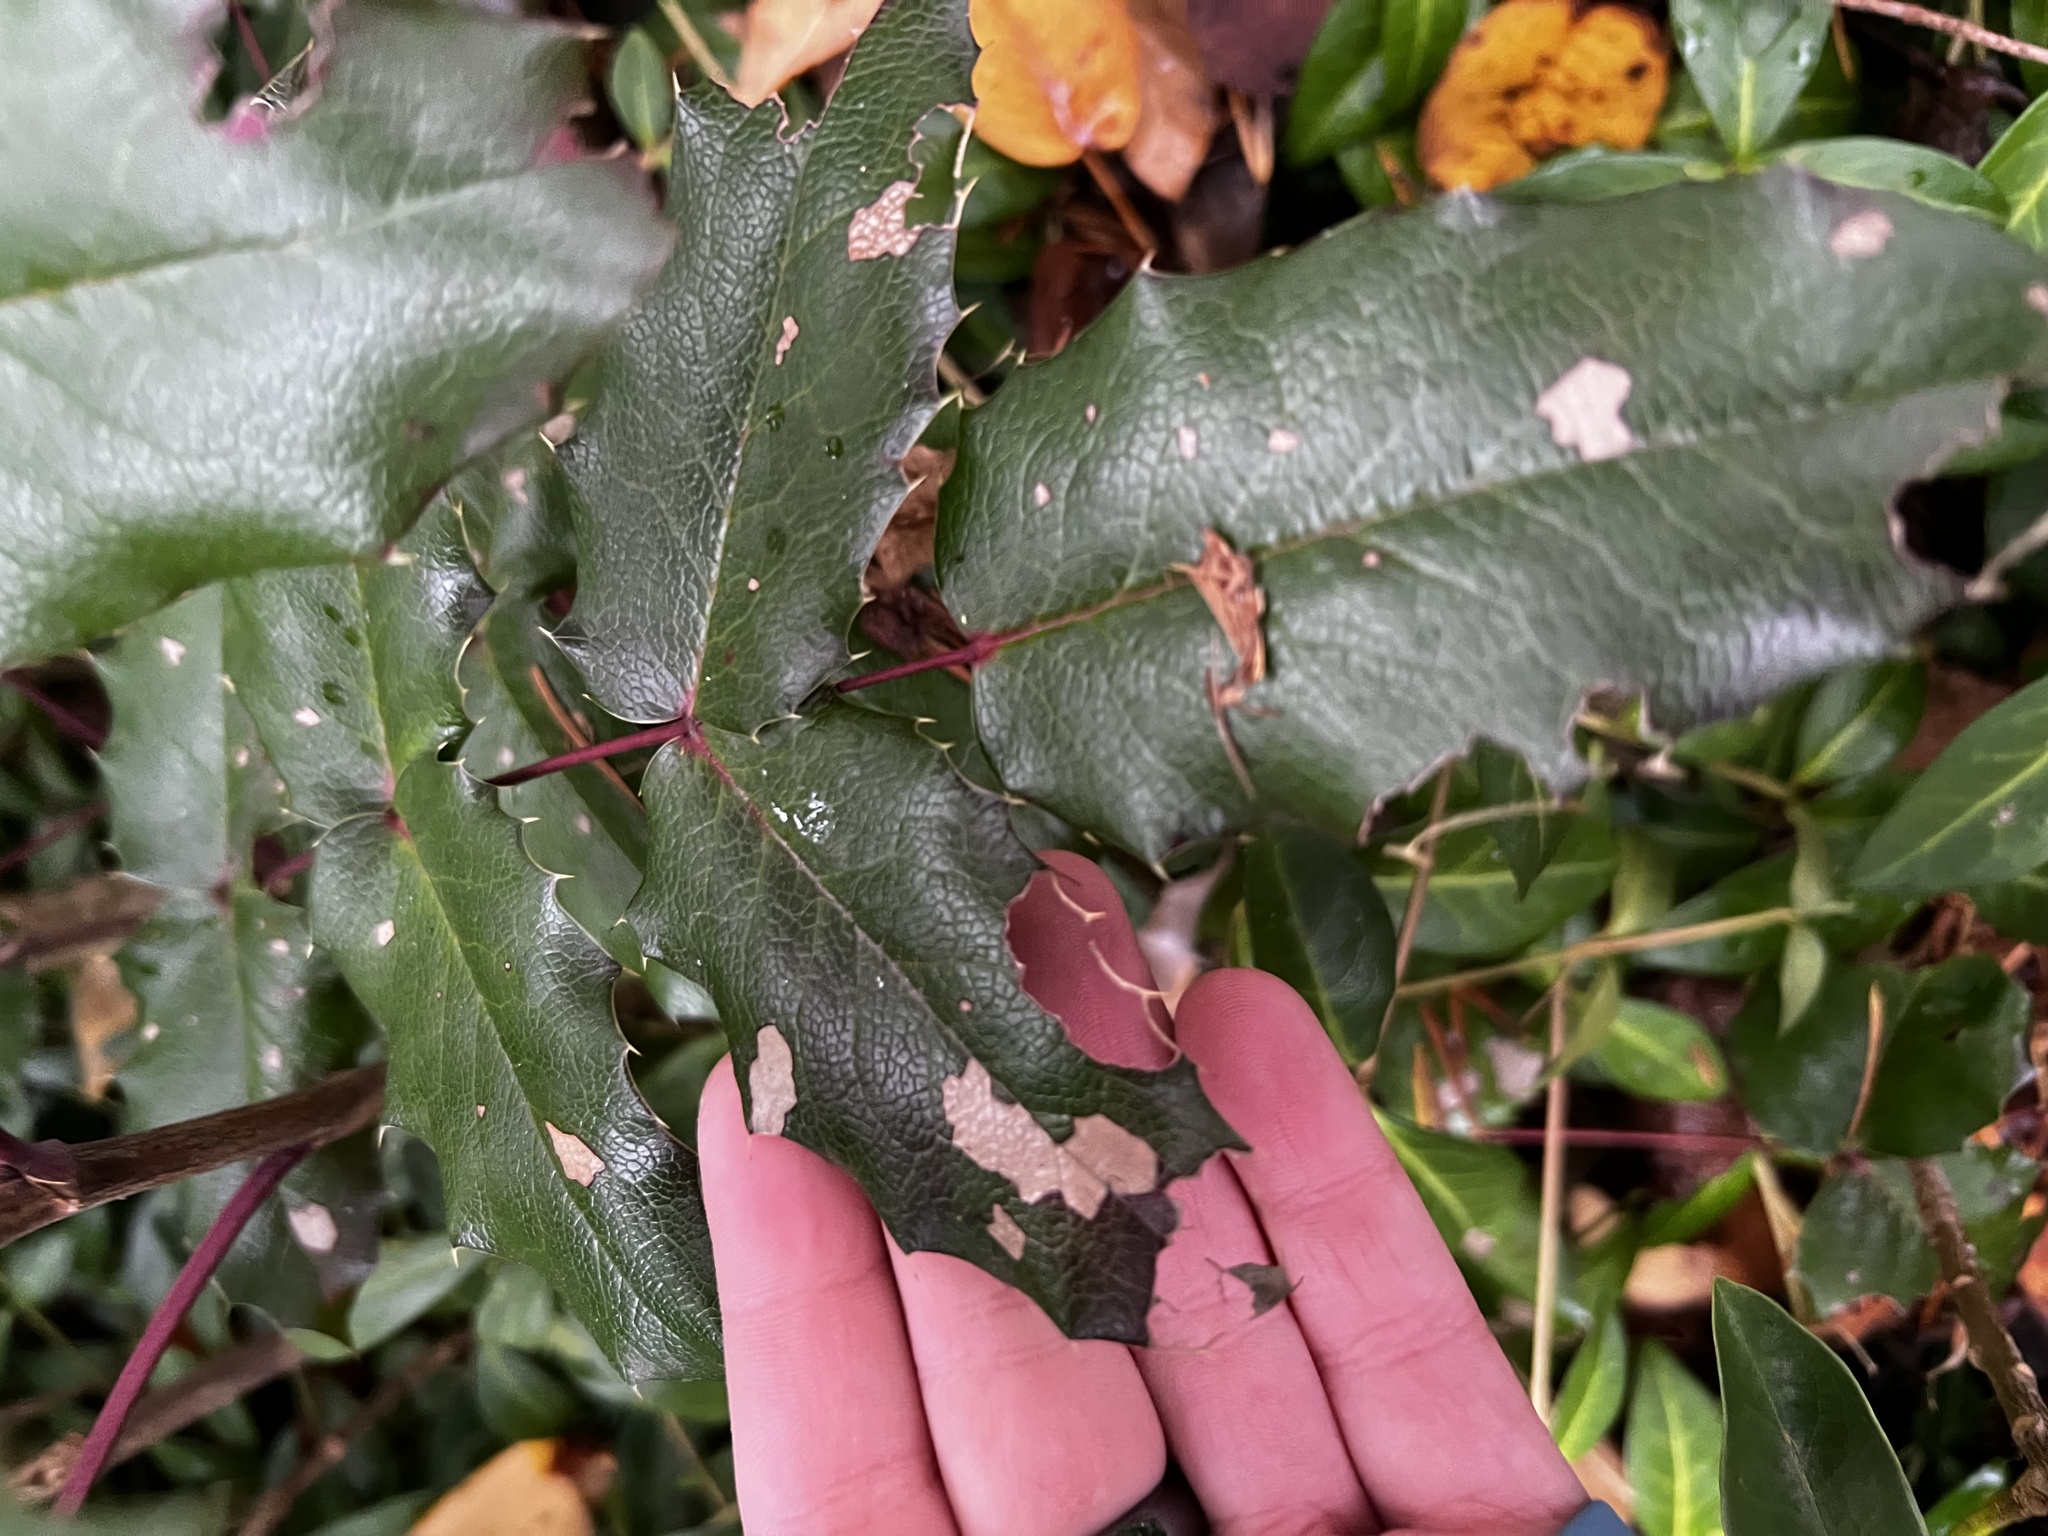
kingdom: Plantae
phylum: Tracheophyta
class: Magnoliopsida
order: Ranunculales
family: Berberidaceae
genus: Mahonia
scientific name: Mahonia nervosa
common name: Cascade oregon-grape
